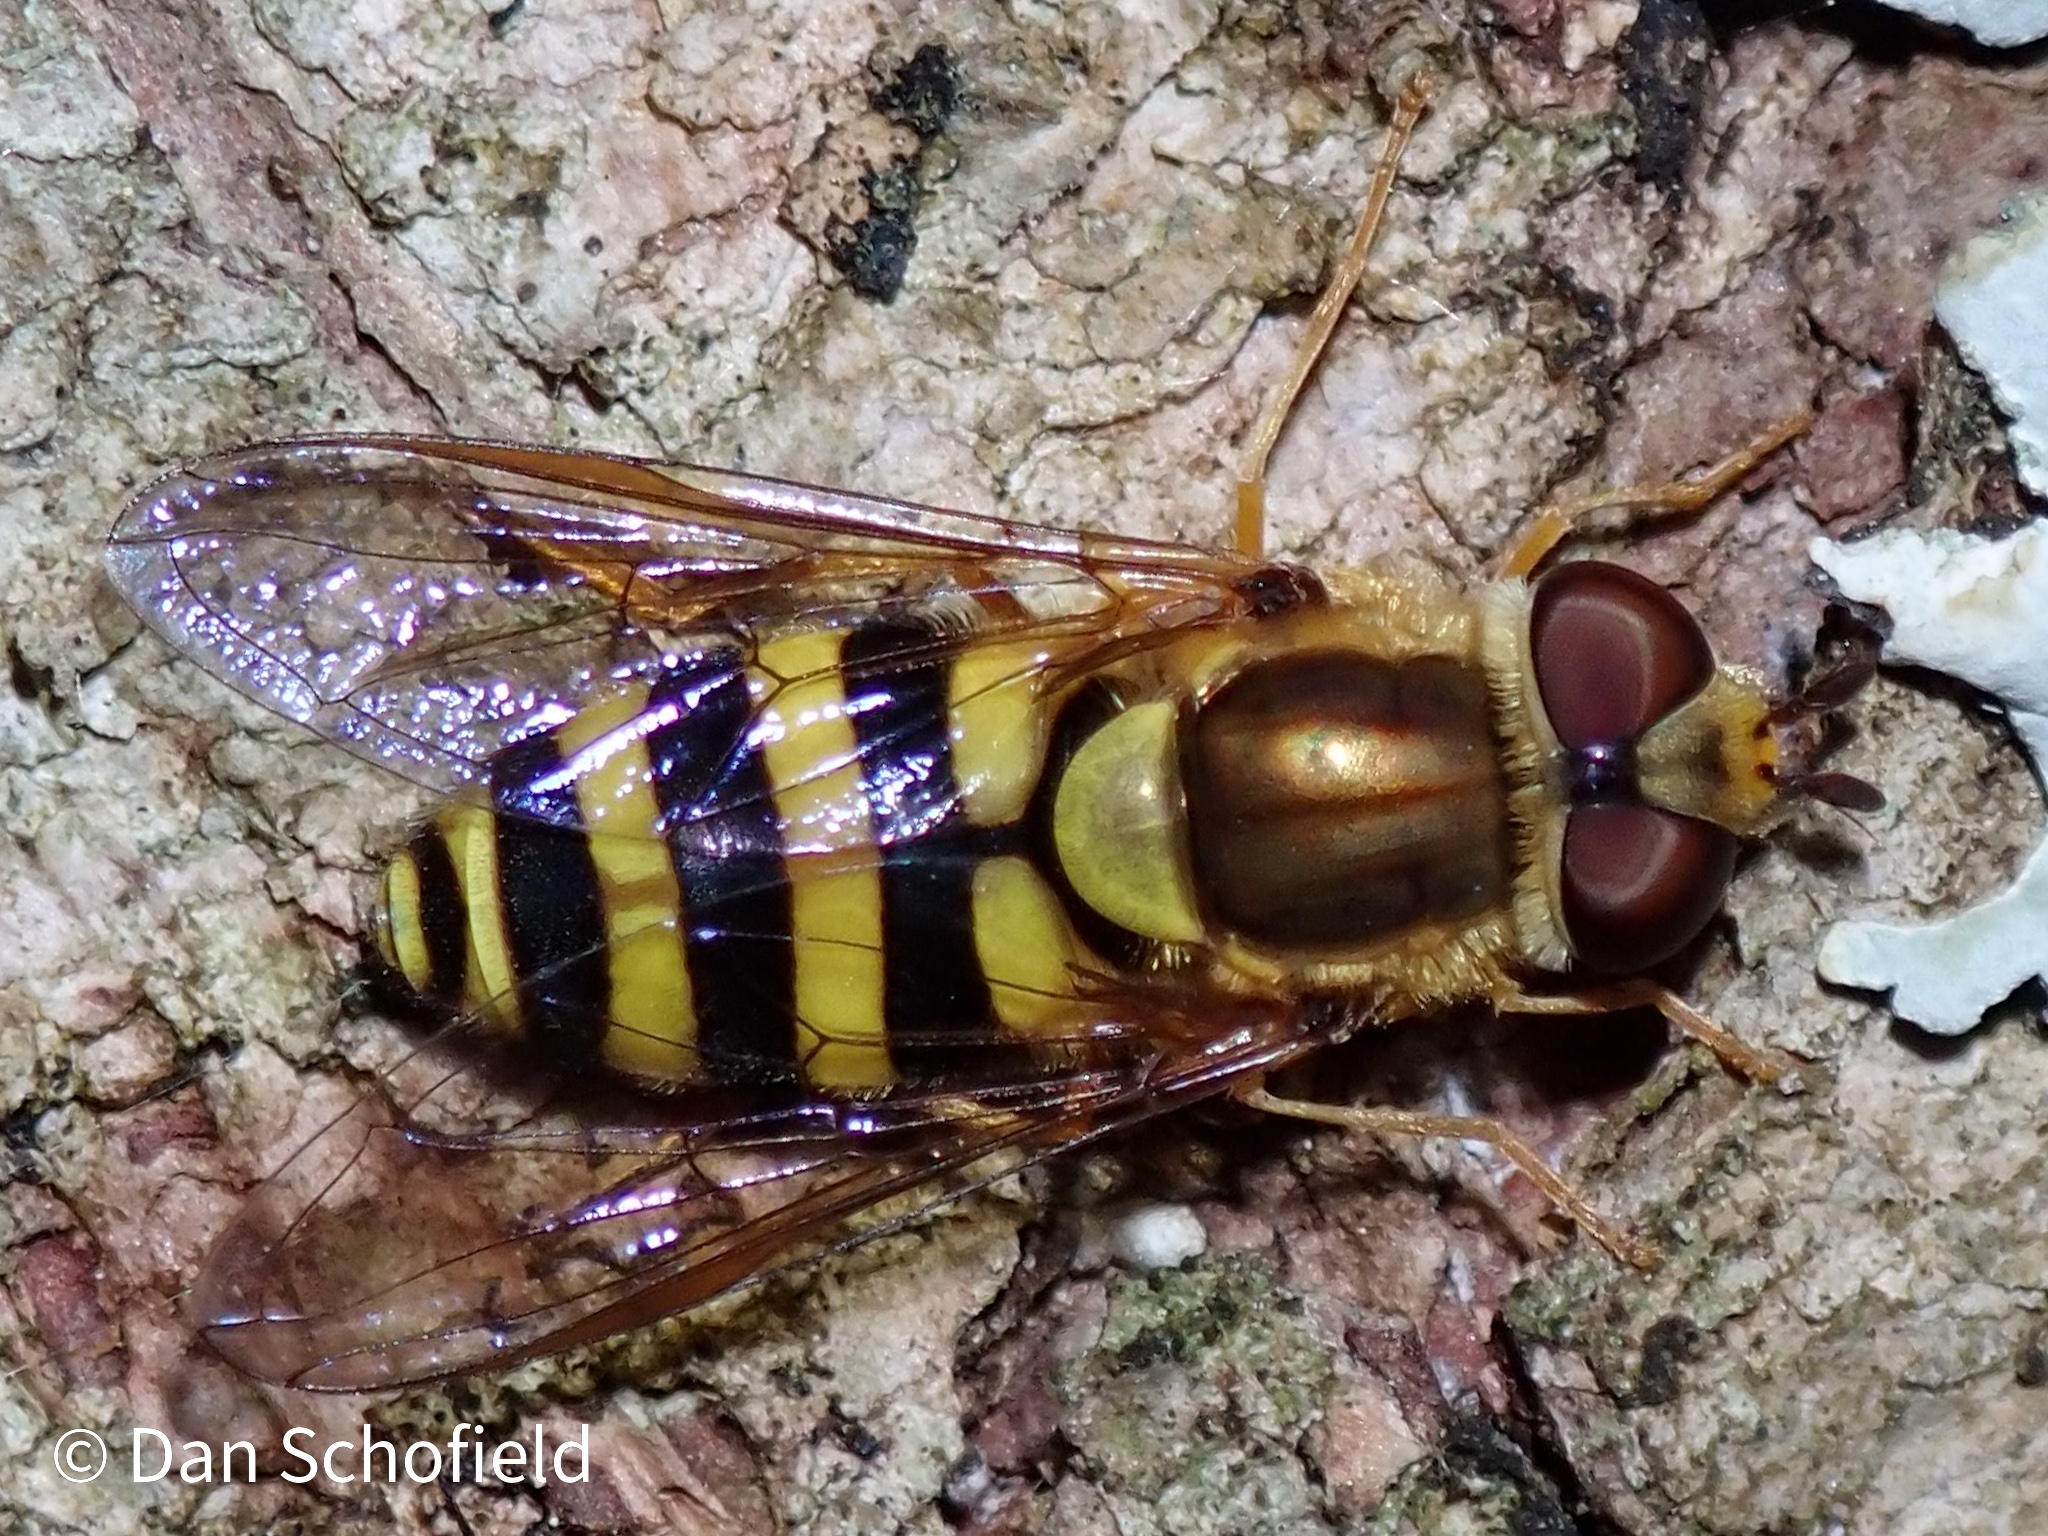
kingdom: Animalia
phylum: Arthropoda
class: Insecta
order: Diptera
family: Syrphidae
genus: Syrphus
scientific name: Syrphus knabi
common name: Eastern flower fly
